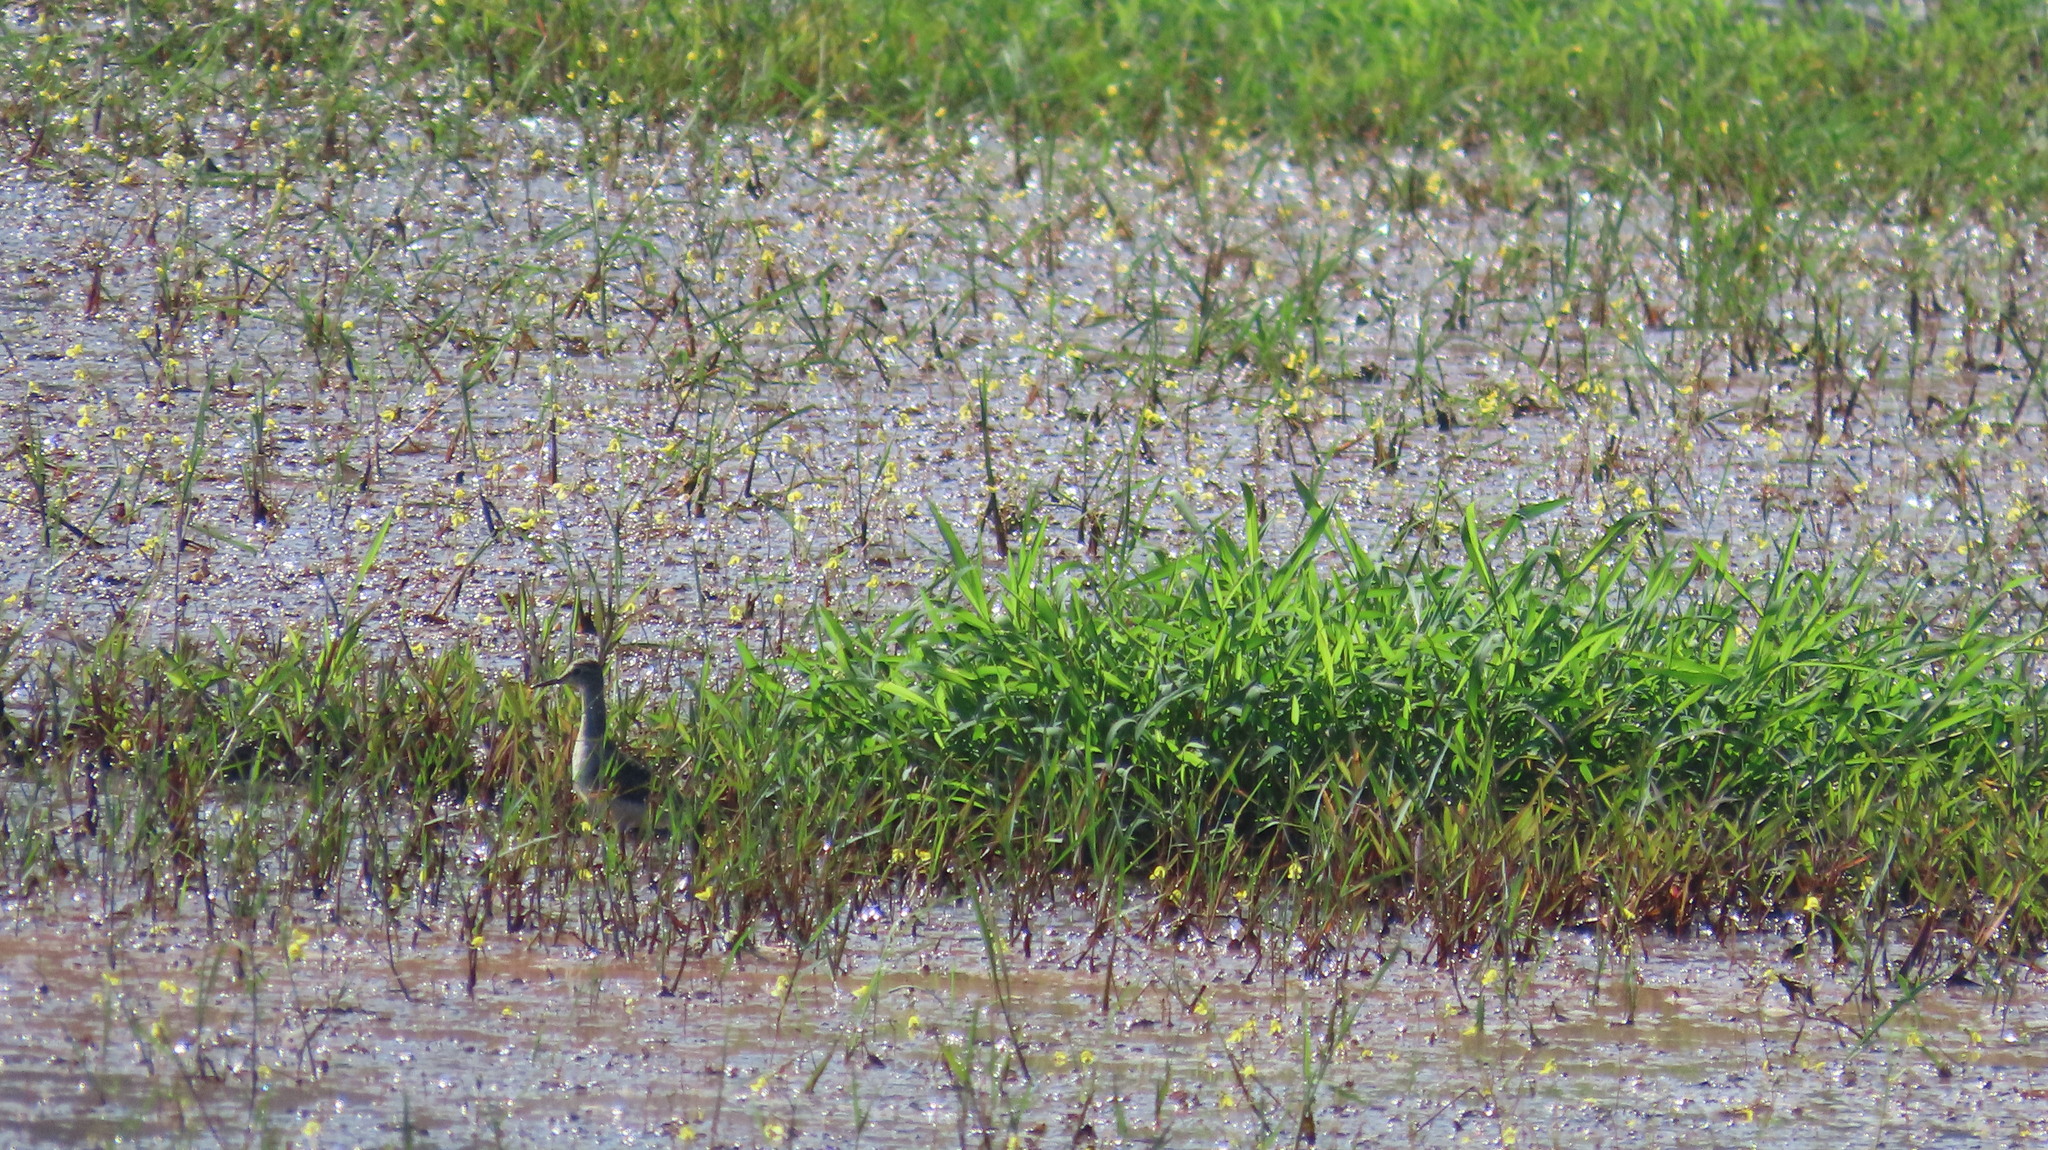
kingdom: Animalia
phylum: Chordata
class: Aves
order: Charadriiformes
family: Scolopacidae
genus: Tringa
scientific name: Tringa glareola
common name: Wood sandpiper
